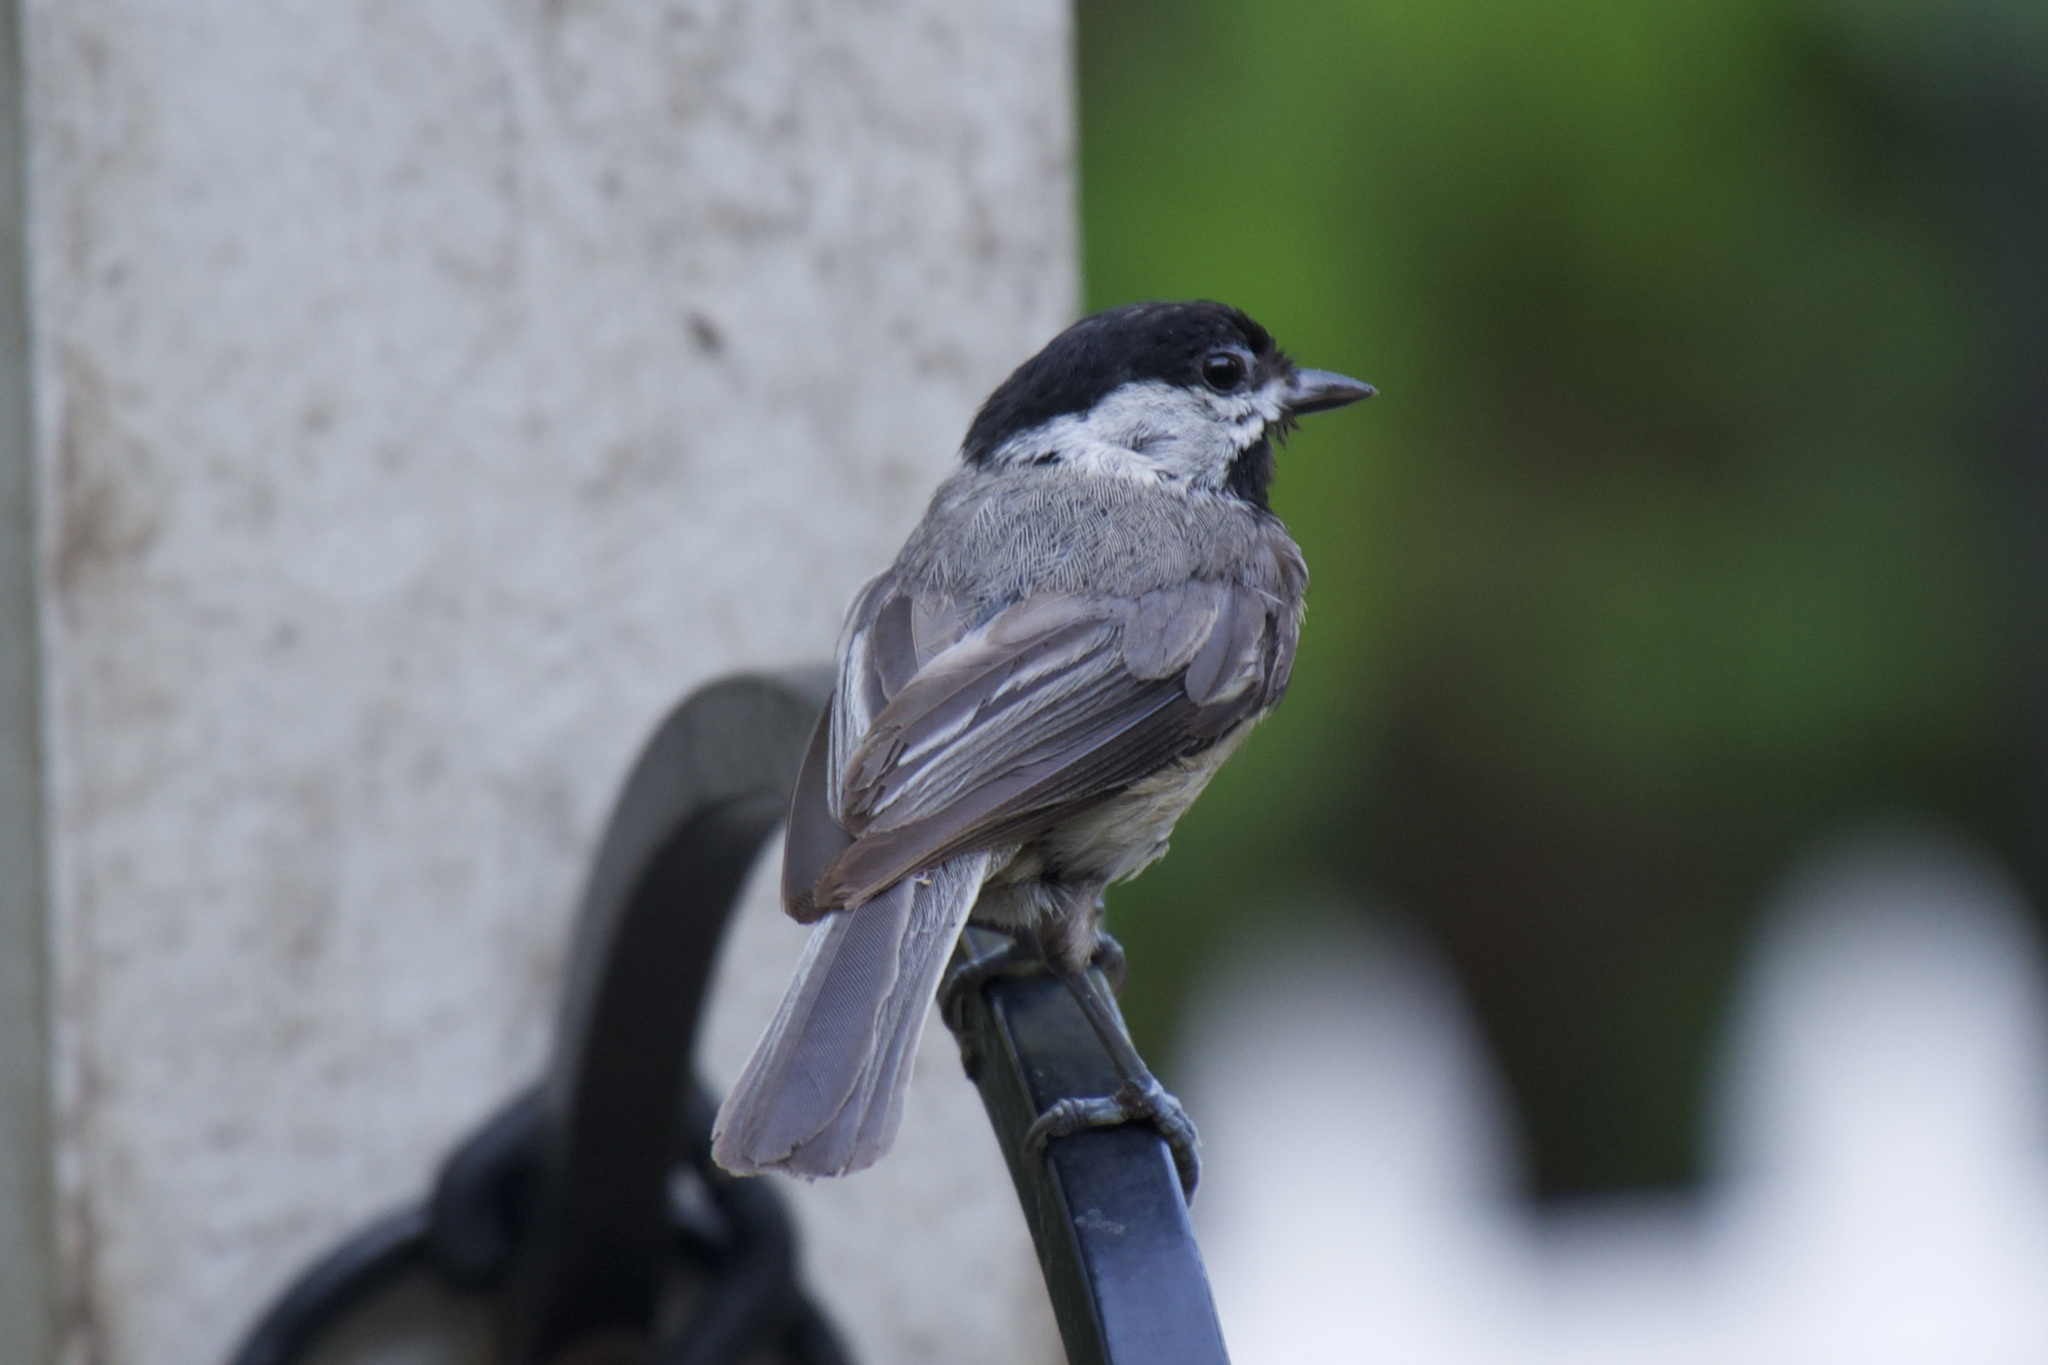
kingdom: Animalia
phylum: Chordata
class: Aves
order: Passeriformes
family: Paridae
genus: Poecile
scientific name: Poecile carolinensis
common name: Carolina chickadee
